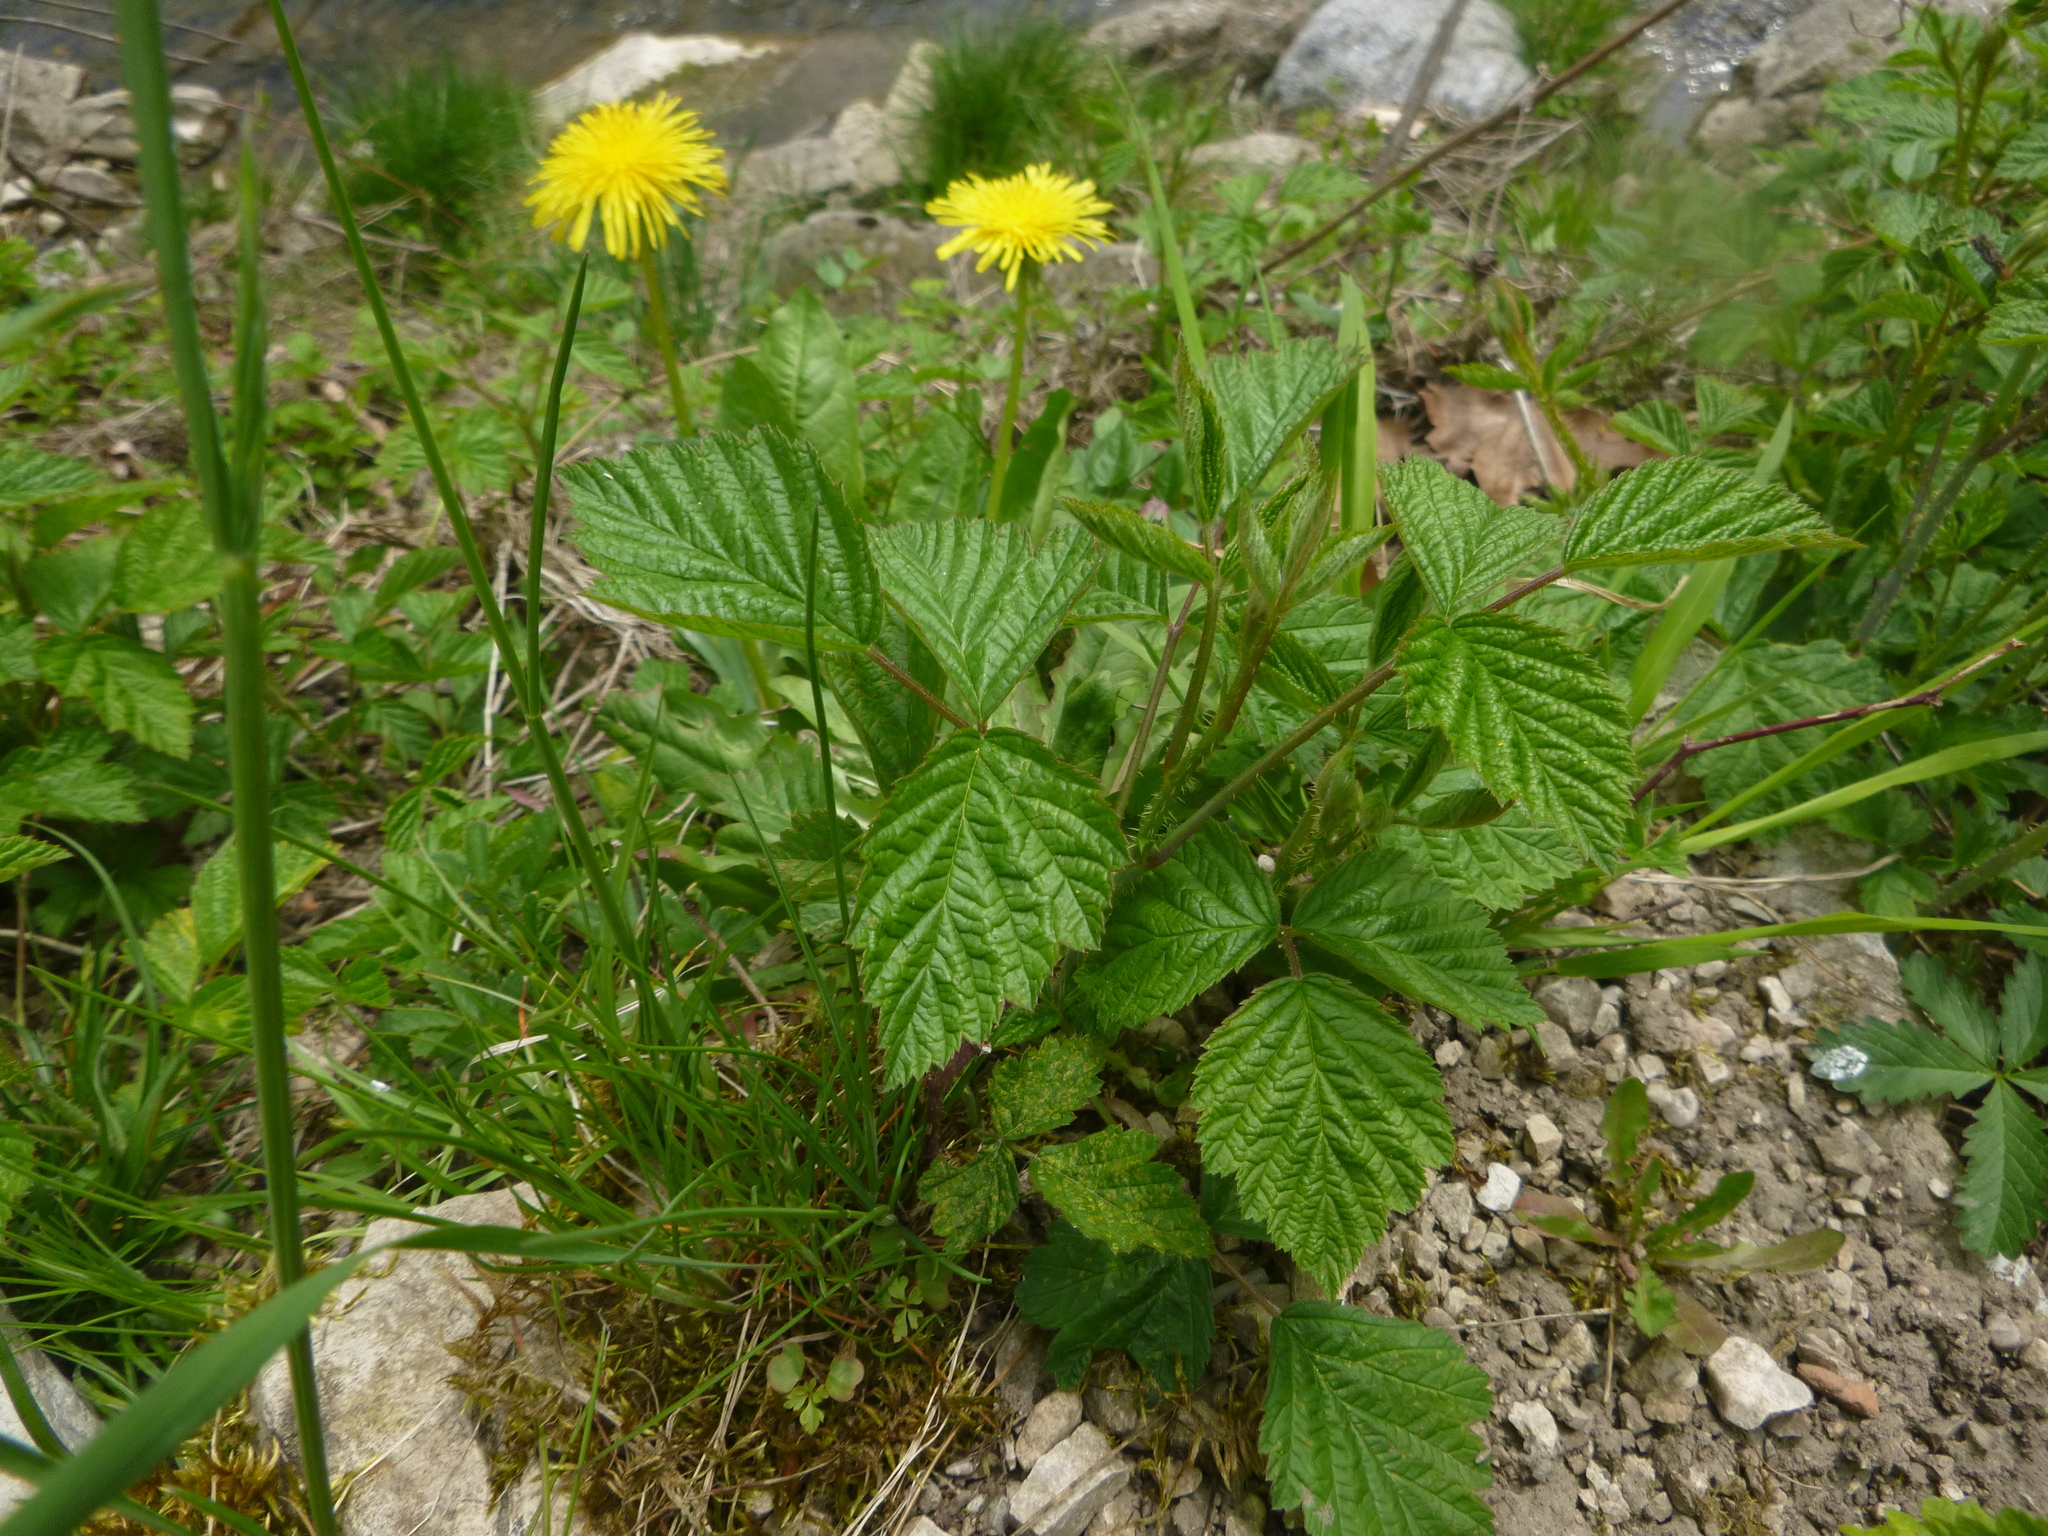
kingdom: Plantae
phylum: Tracheophyta
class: Magnoliopsida
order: Rosales
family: Rosaceae
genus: Rubus
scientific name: Rubus caesius
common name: Dewberry
